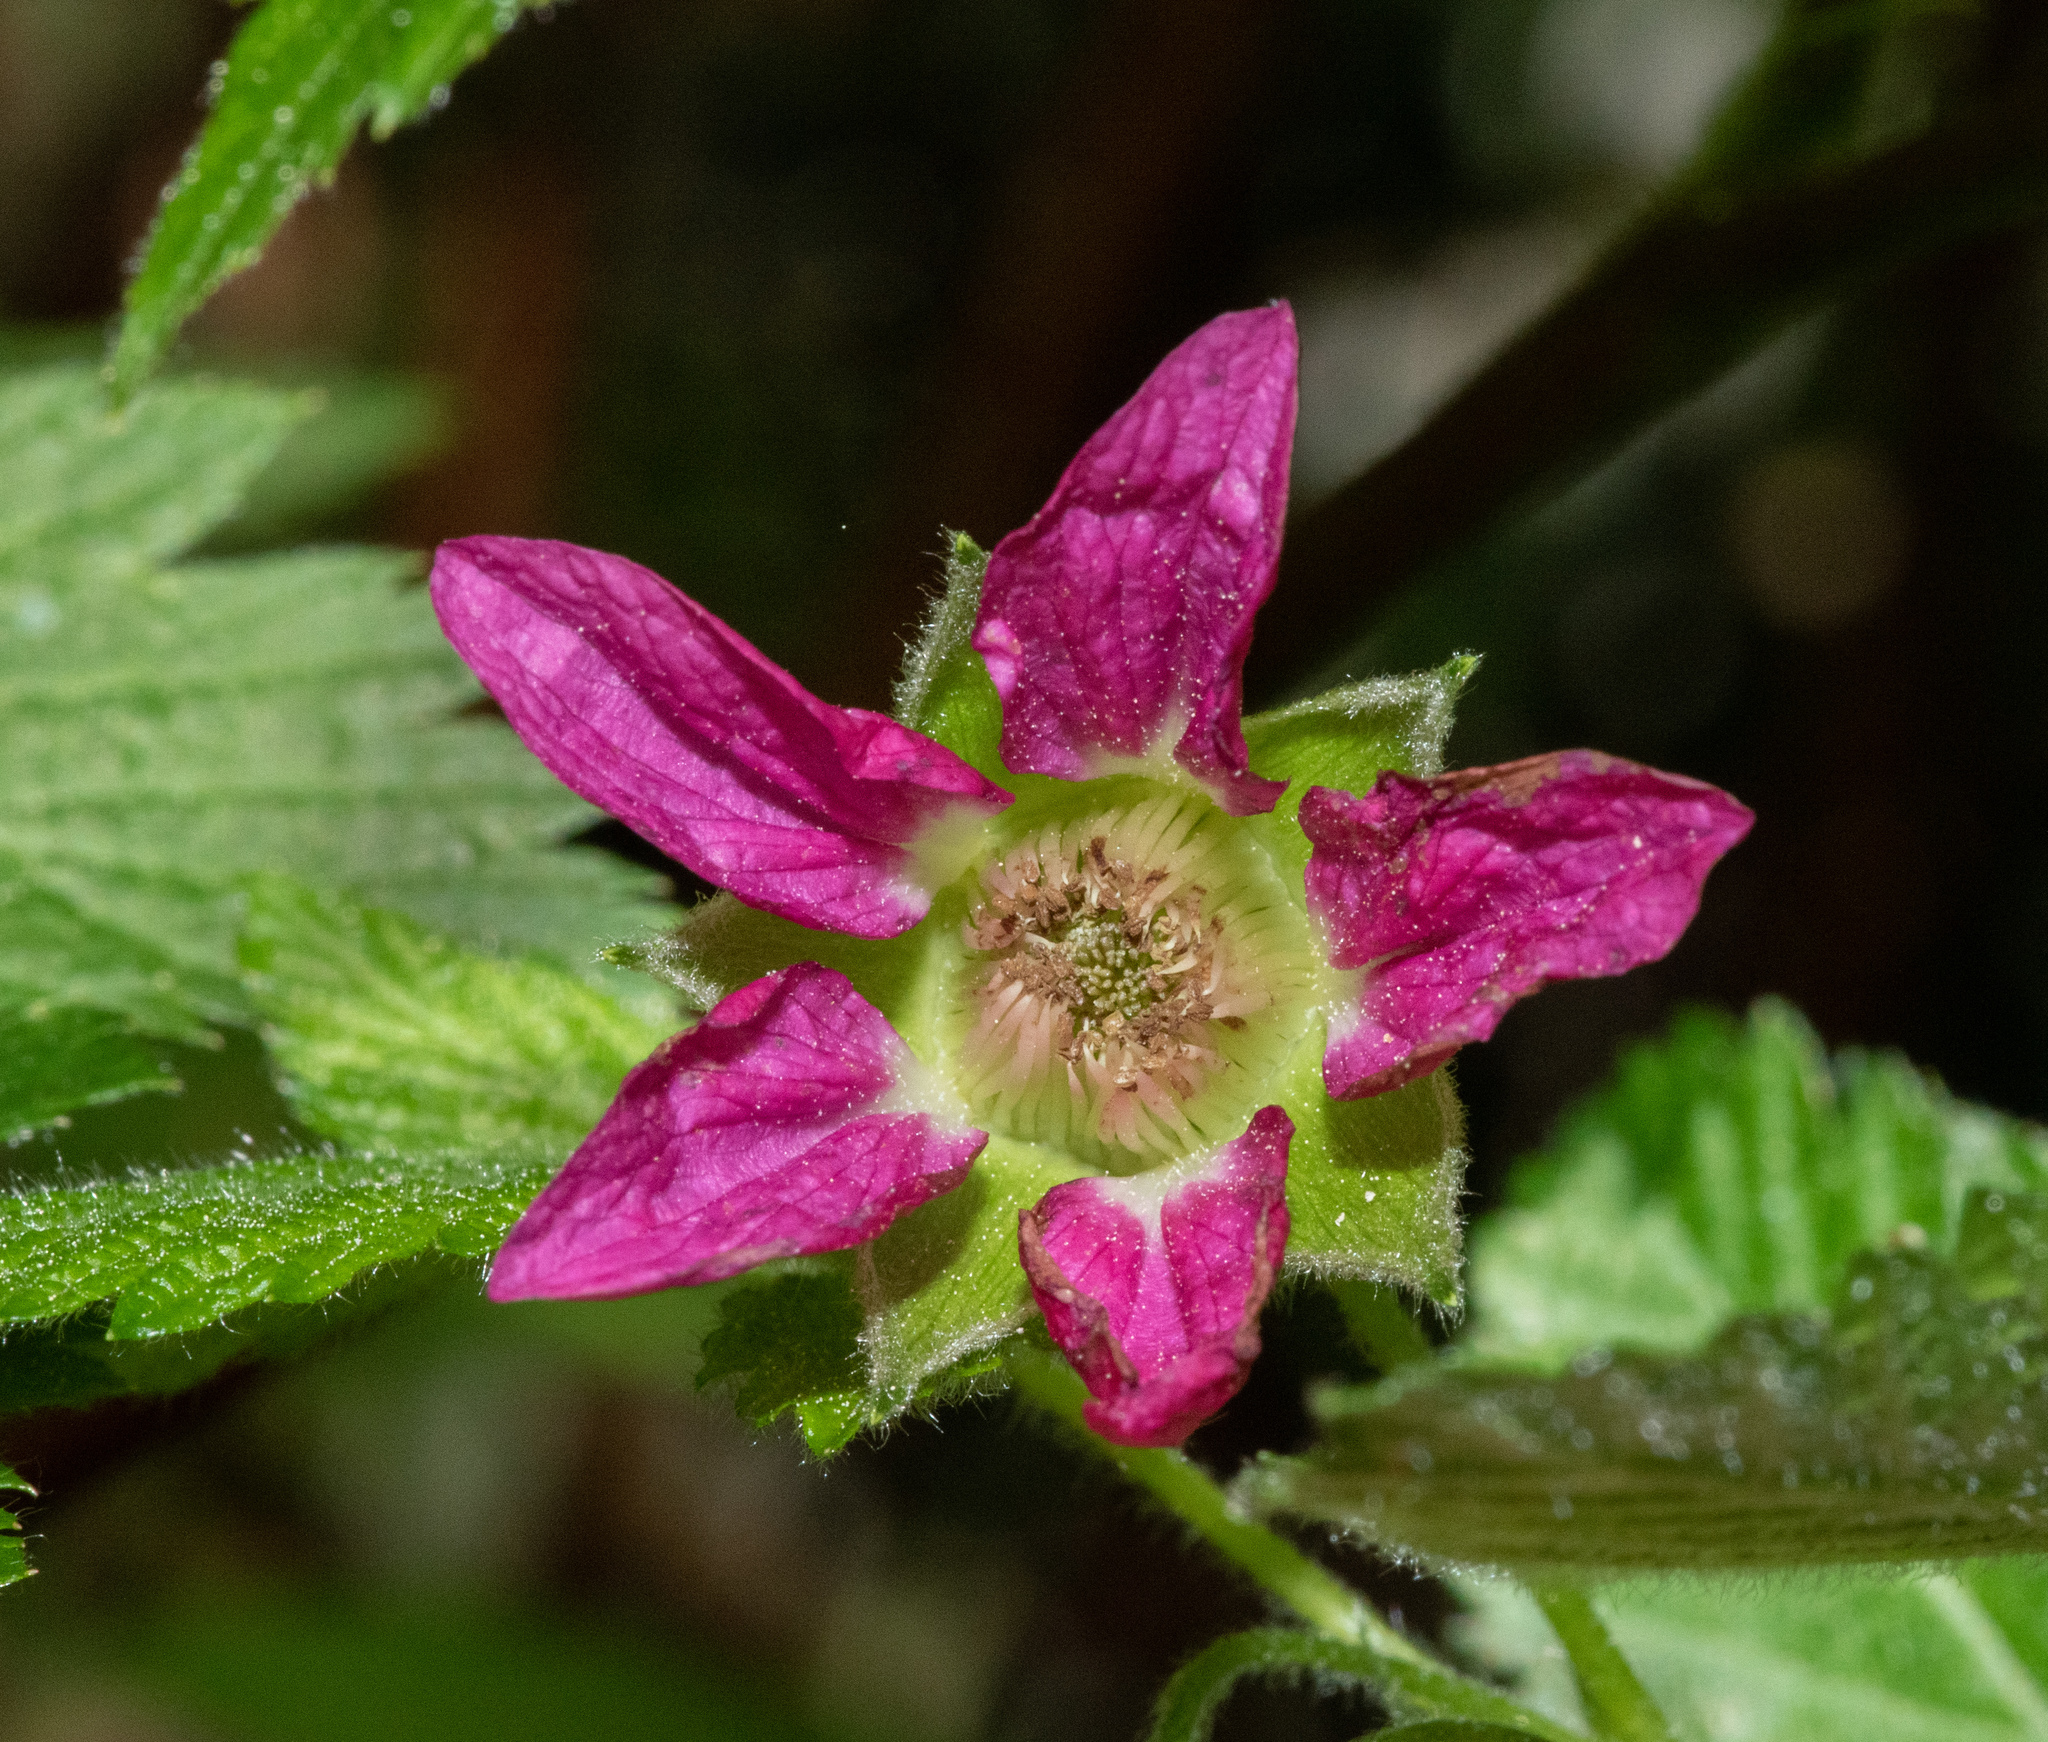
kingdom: Plantae
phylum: Tracheophyta
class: Magnoliopsida
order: Rosales
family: Rosaceae
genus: Rubus
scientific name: Rubus spectabilis
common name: Salmonberry
